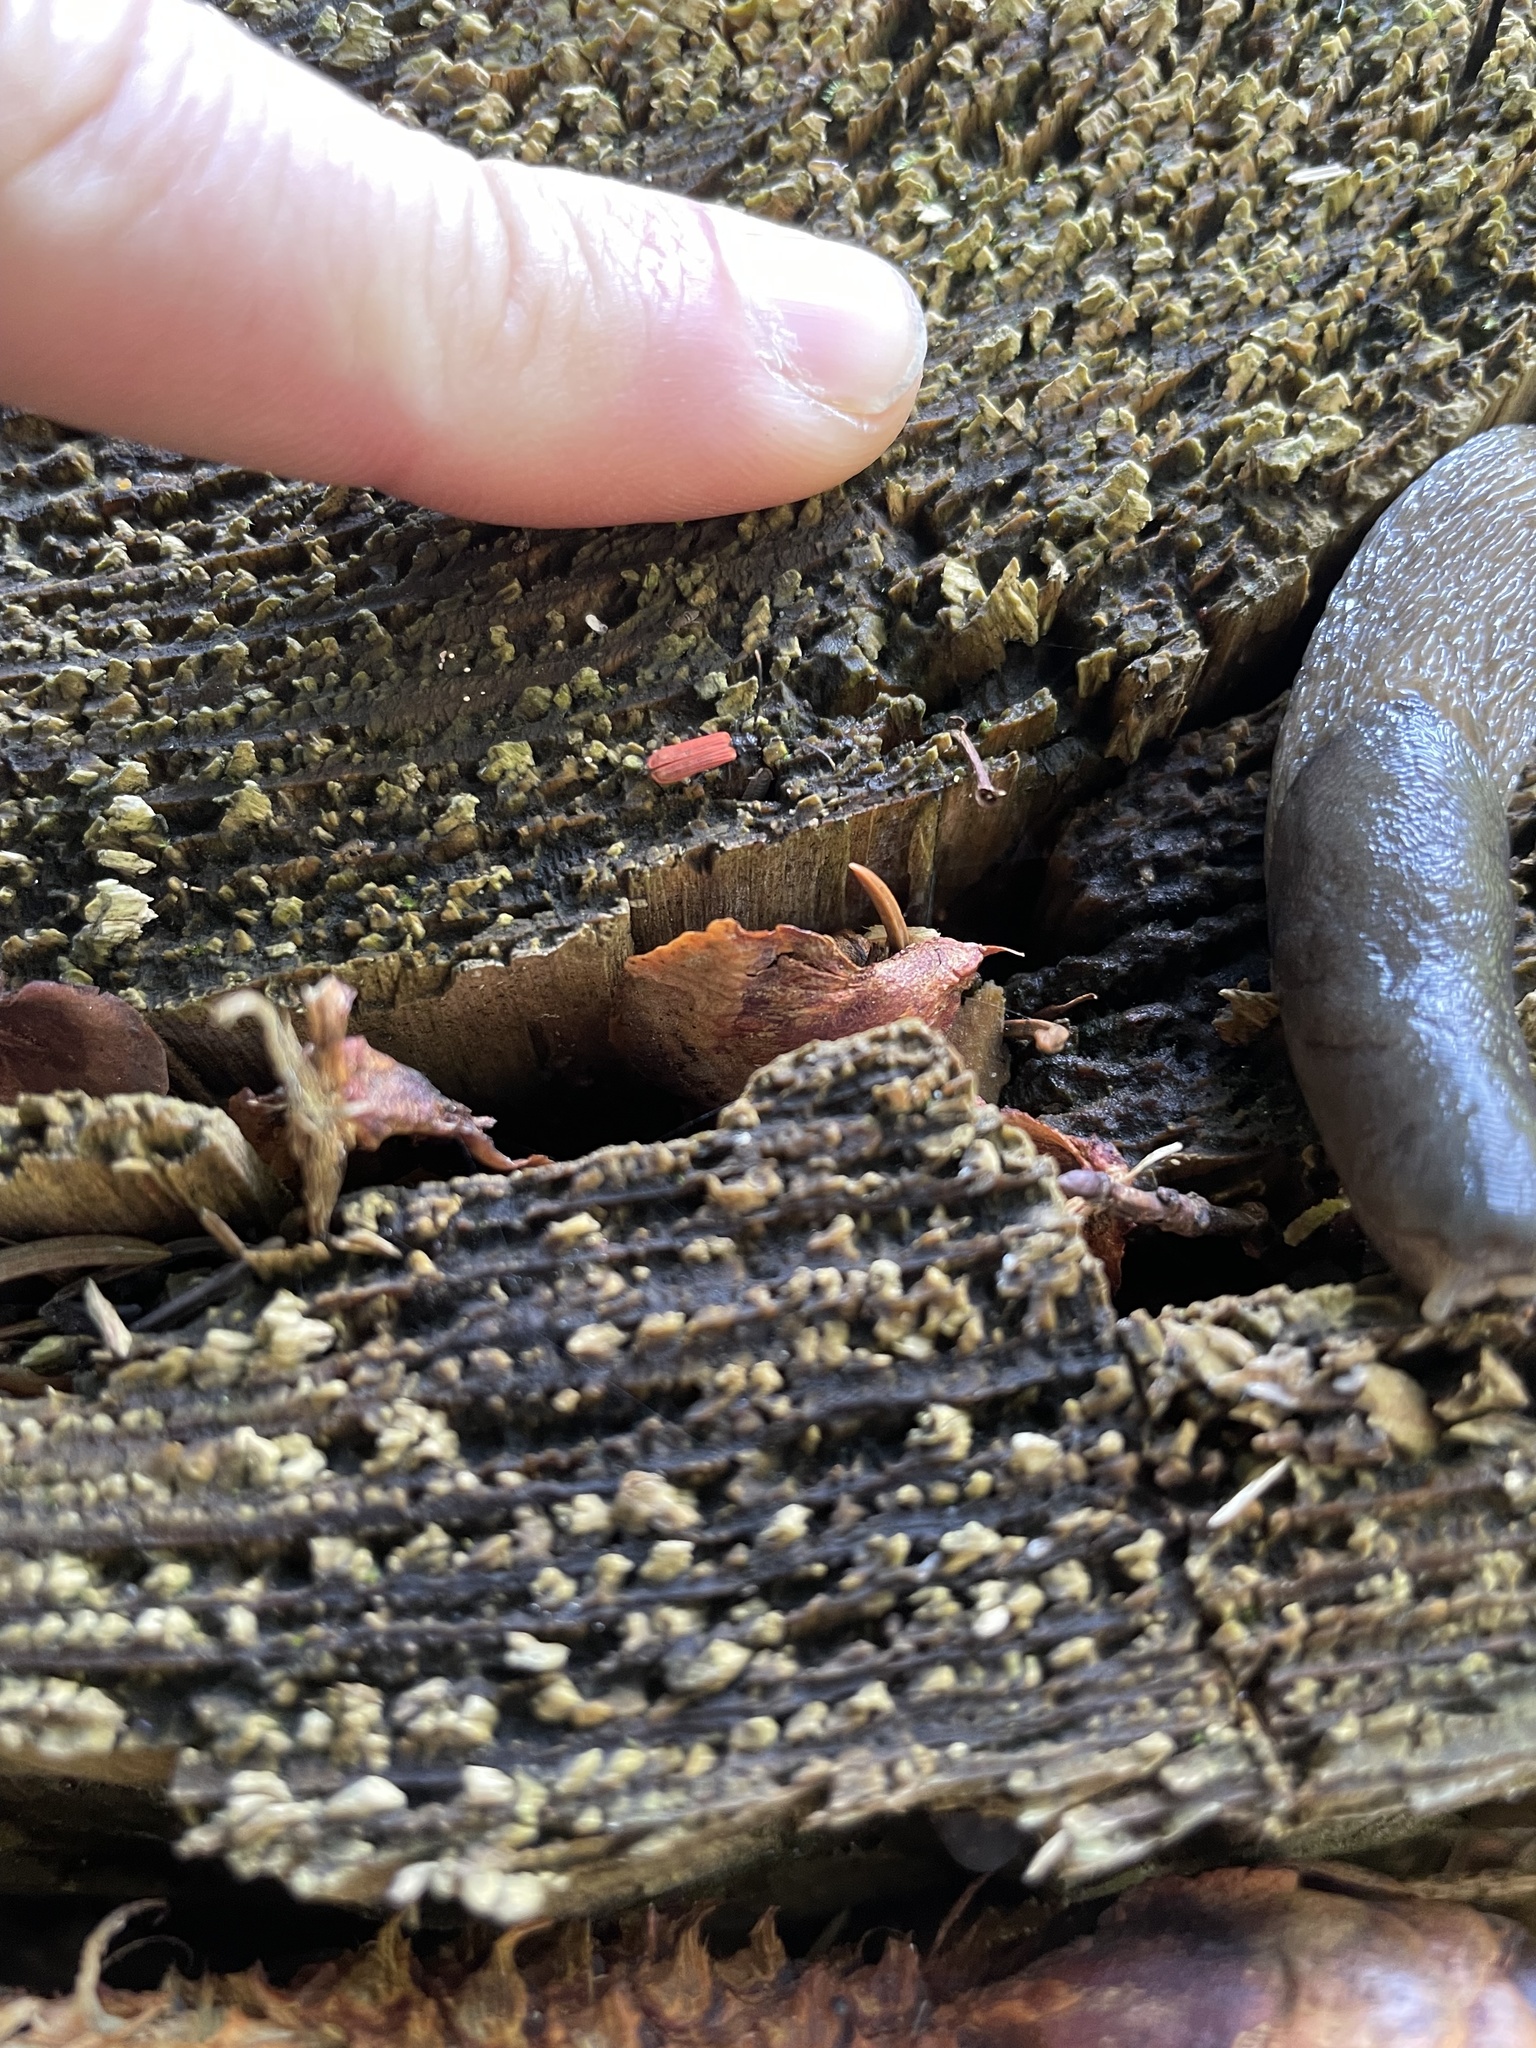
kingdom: Animalia
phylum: Arthropoda
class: Insecta
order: Coleoptera
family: Lycidae
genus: Platycis
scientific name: Platycis minutus
